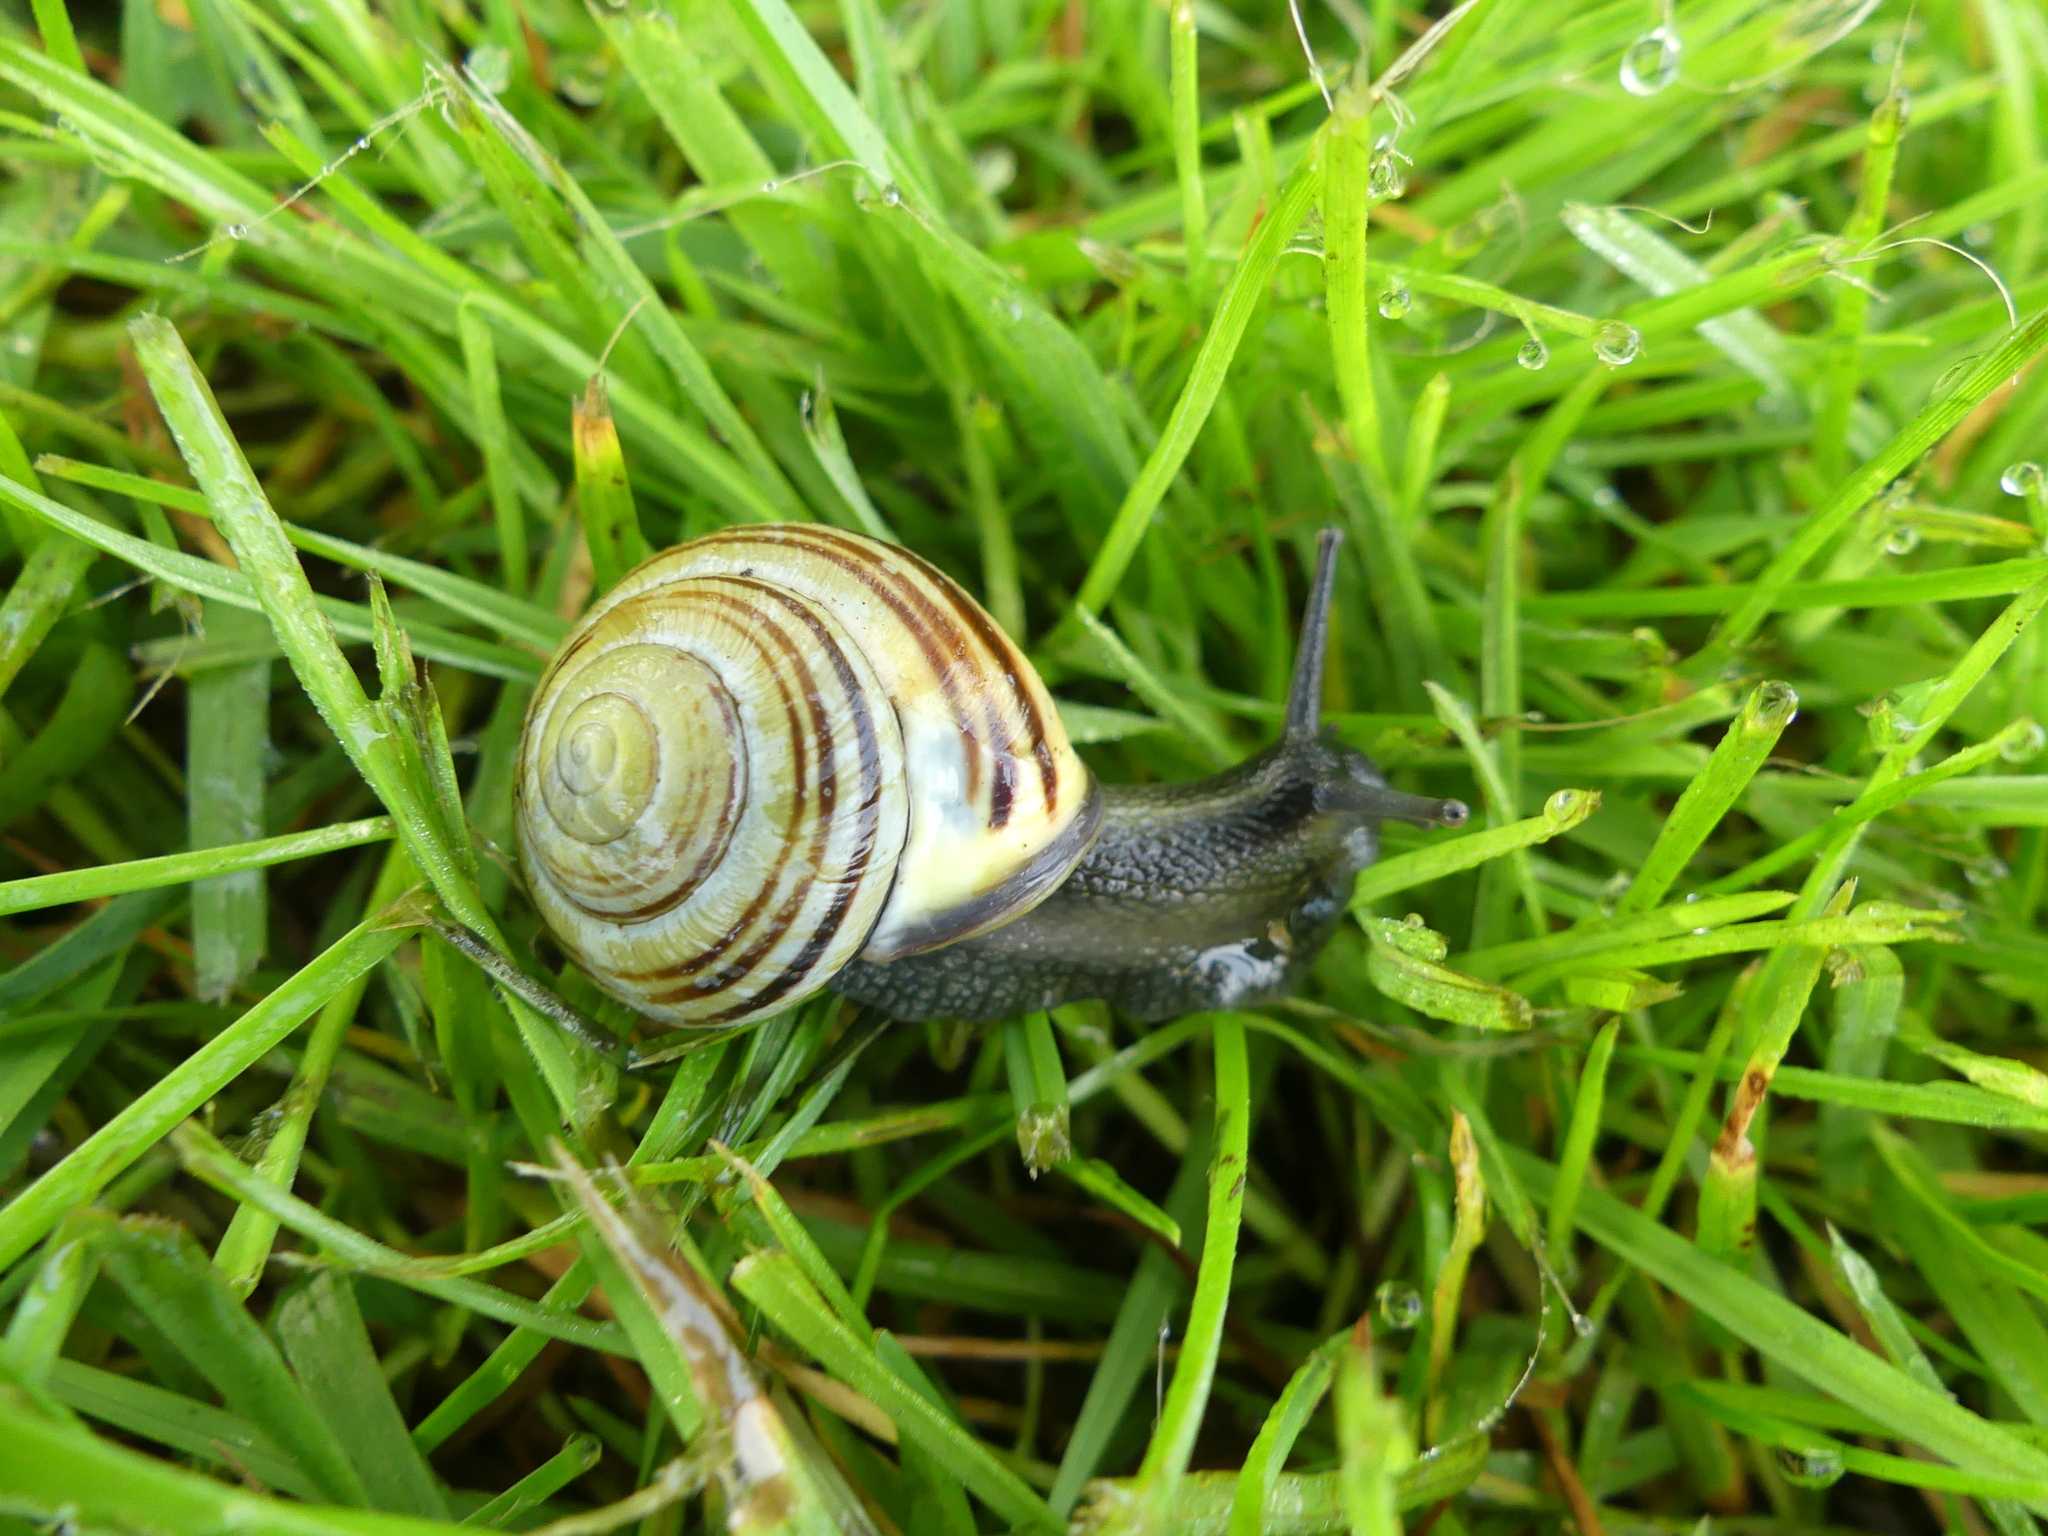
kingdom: Animalia
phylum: Mollusca
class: Gastropoda
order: Stylommatophora
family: Helicidae
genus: Cepaea
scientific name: Cepaea nemoralis
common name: Grovesnail
